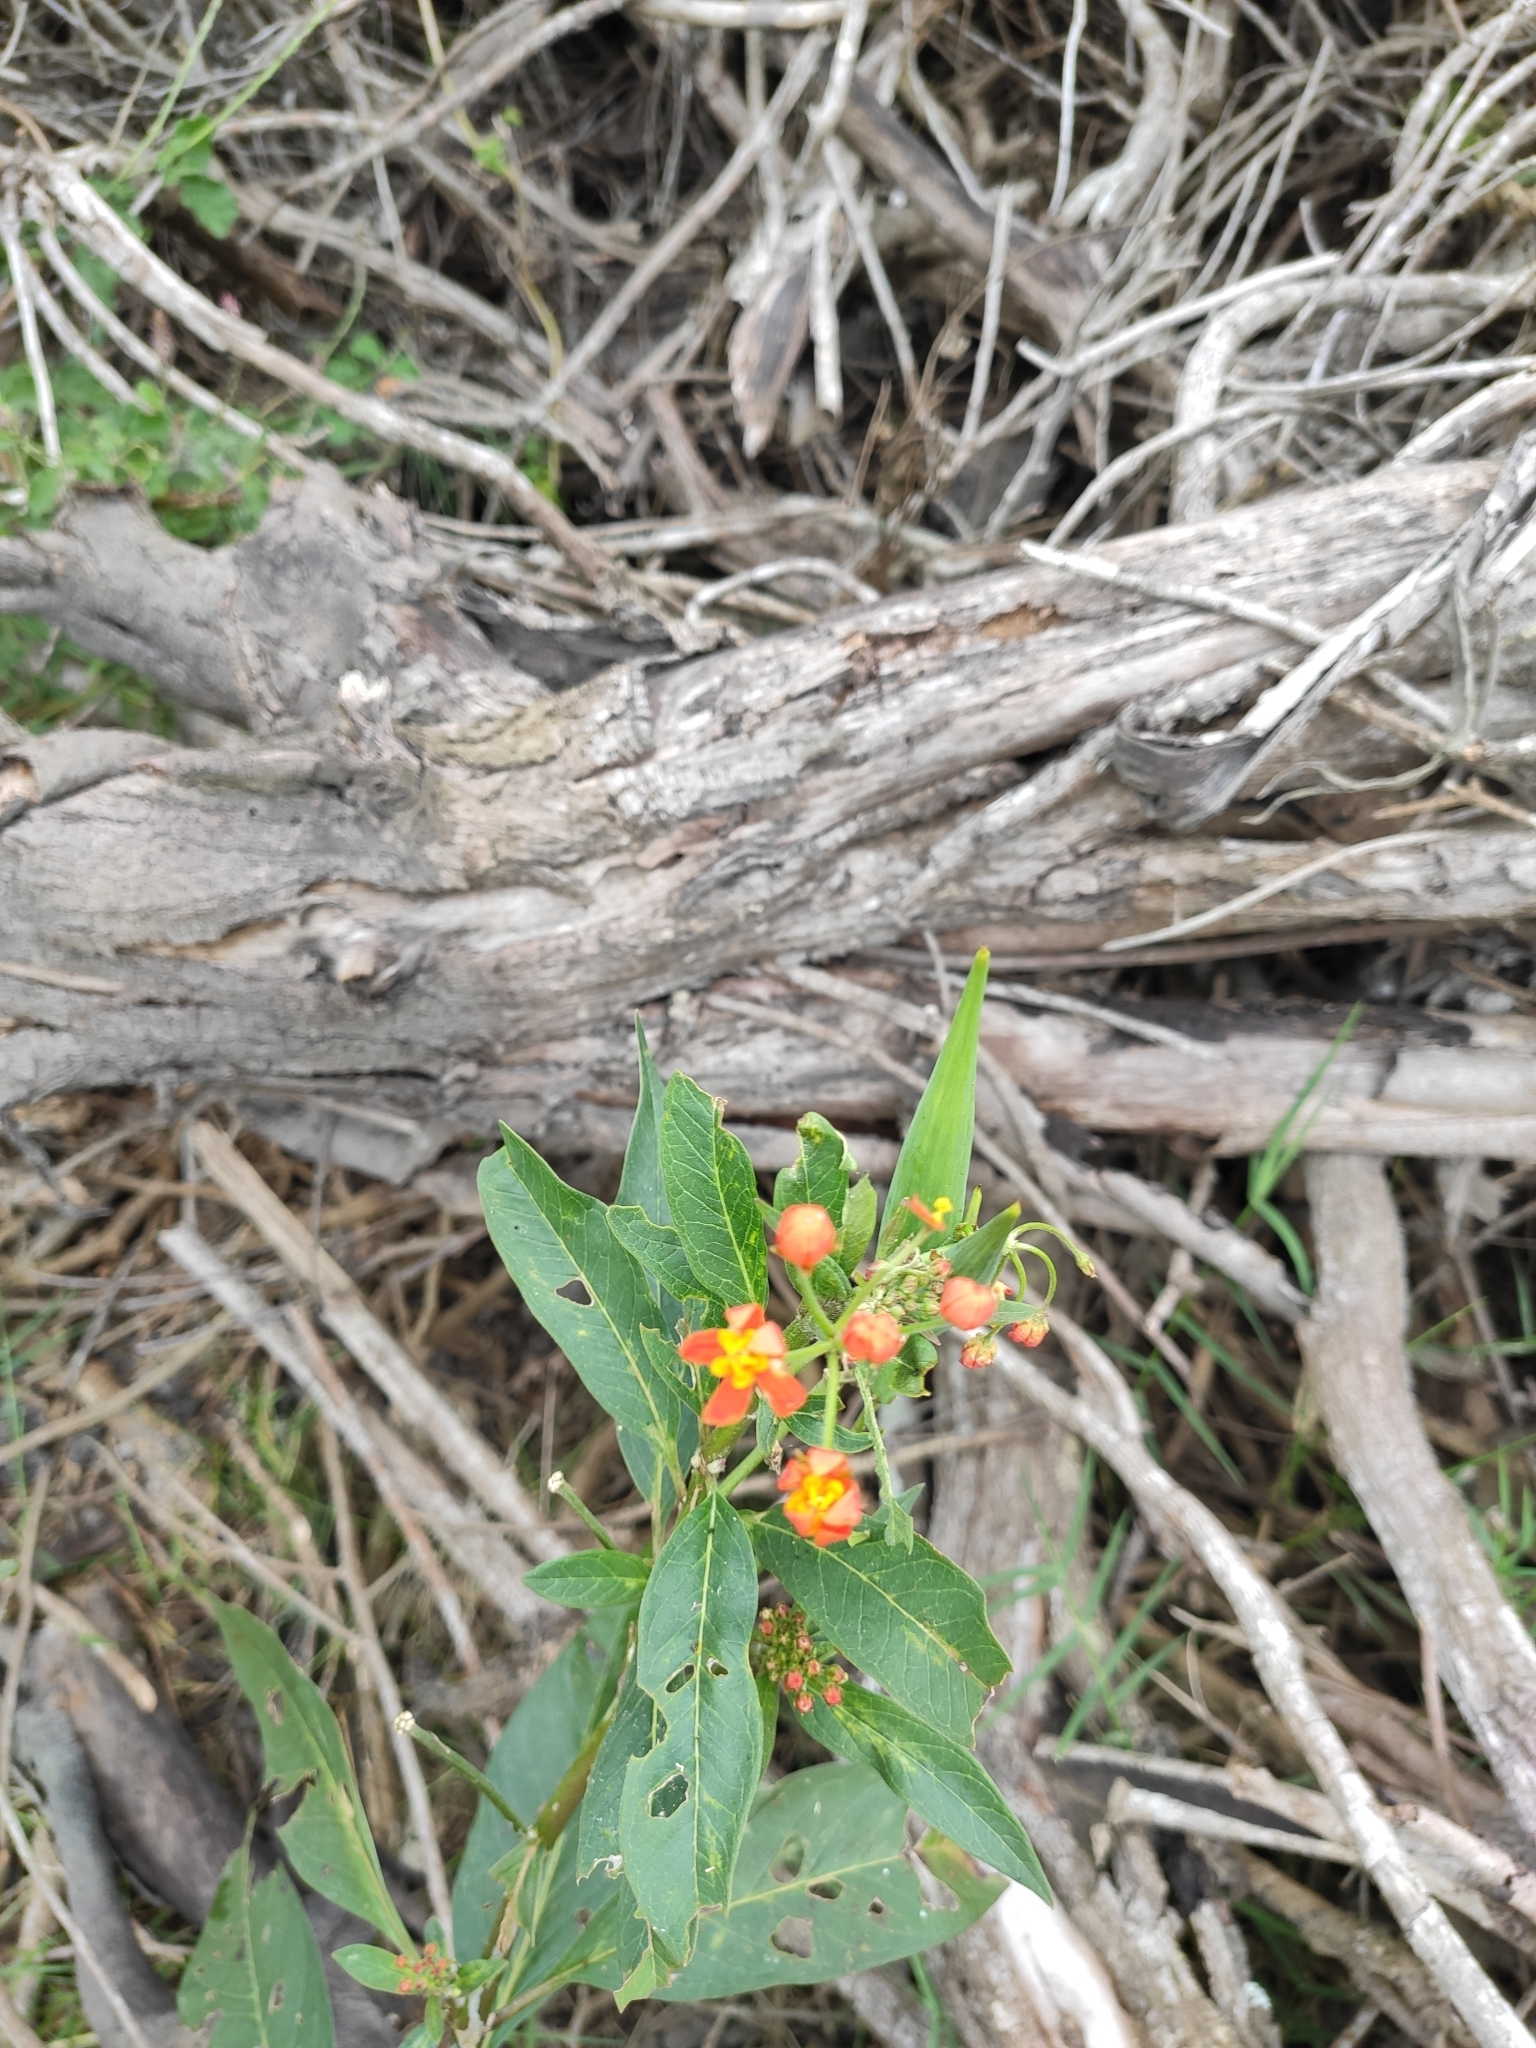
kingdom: Plantae
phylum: Tracheophyta
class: Magnoliopsida
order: Gentianales
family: Apocynaceae
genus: Asclepias
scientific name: Asclepias curassavica
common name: Bloodflower
